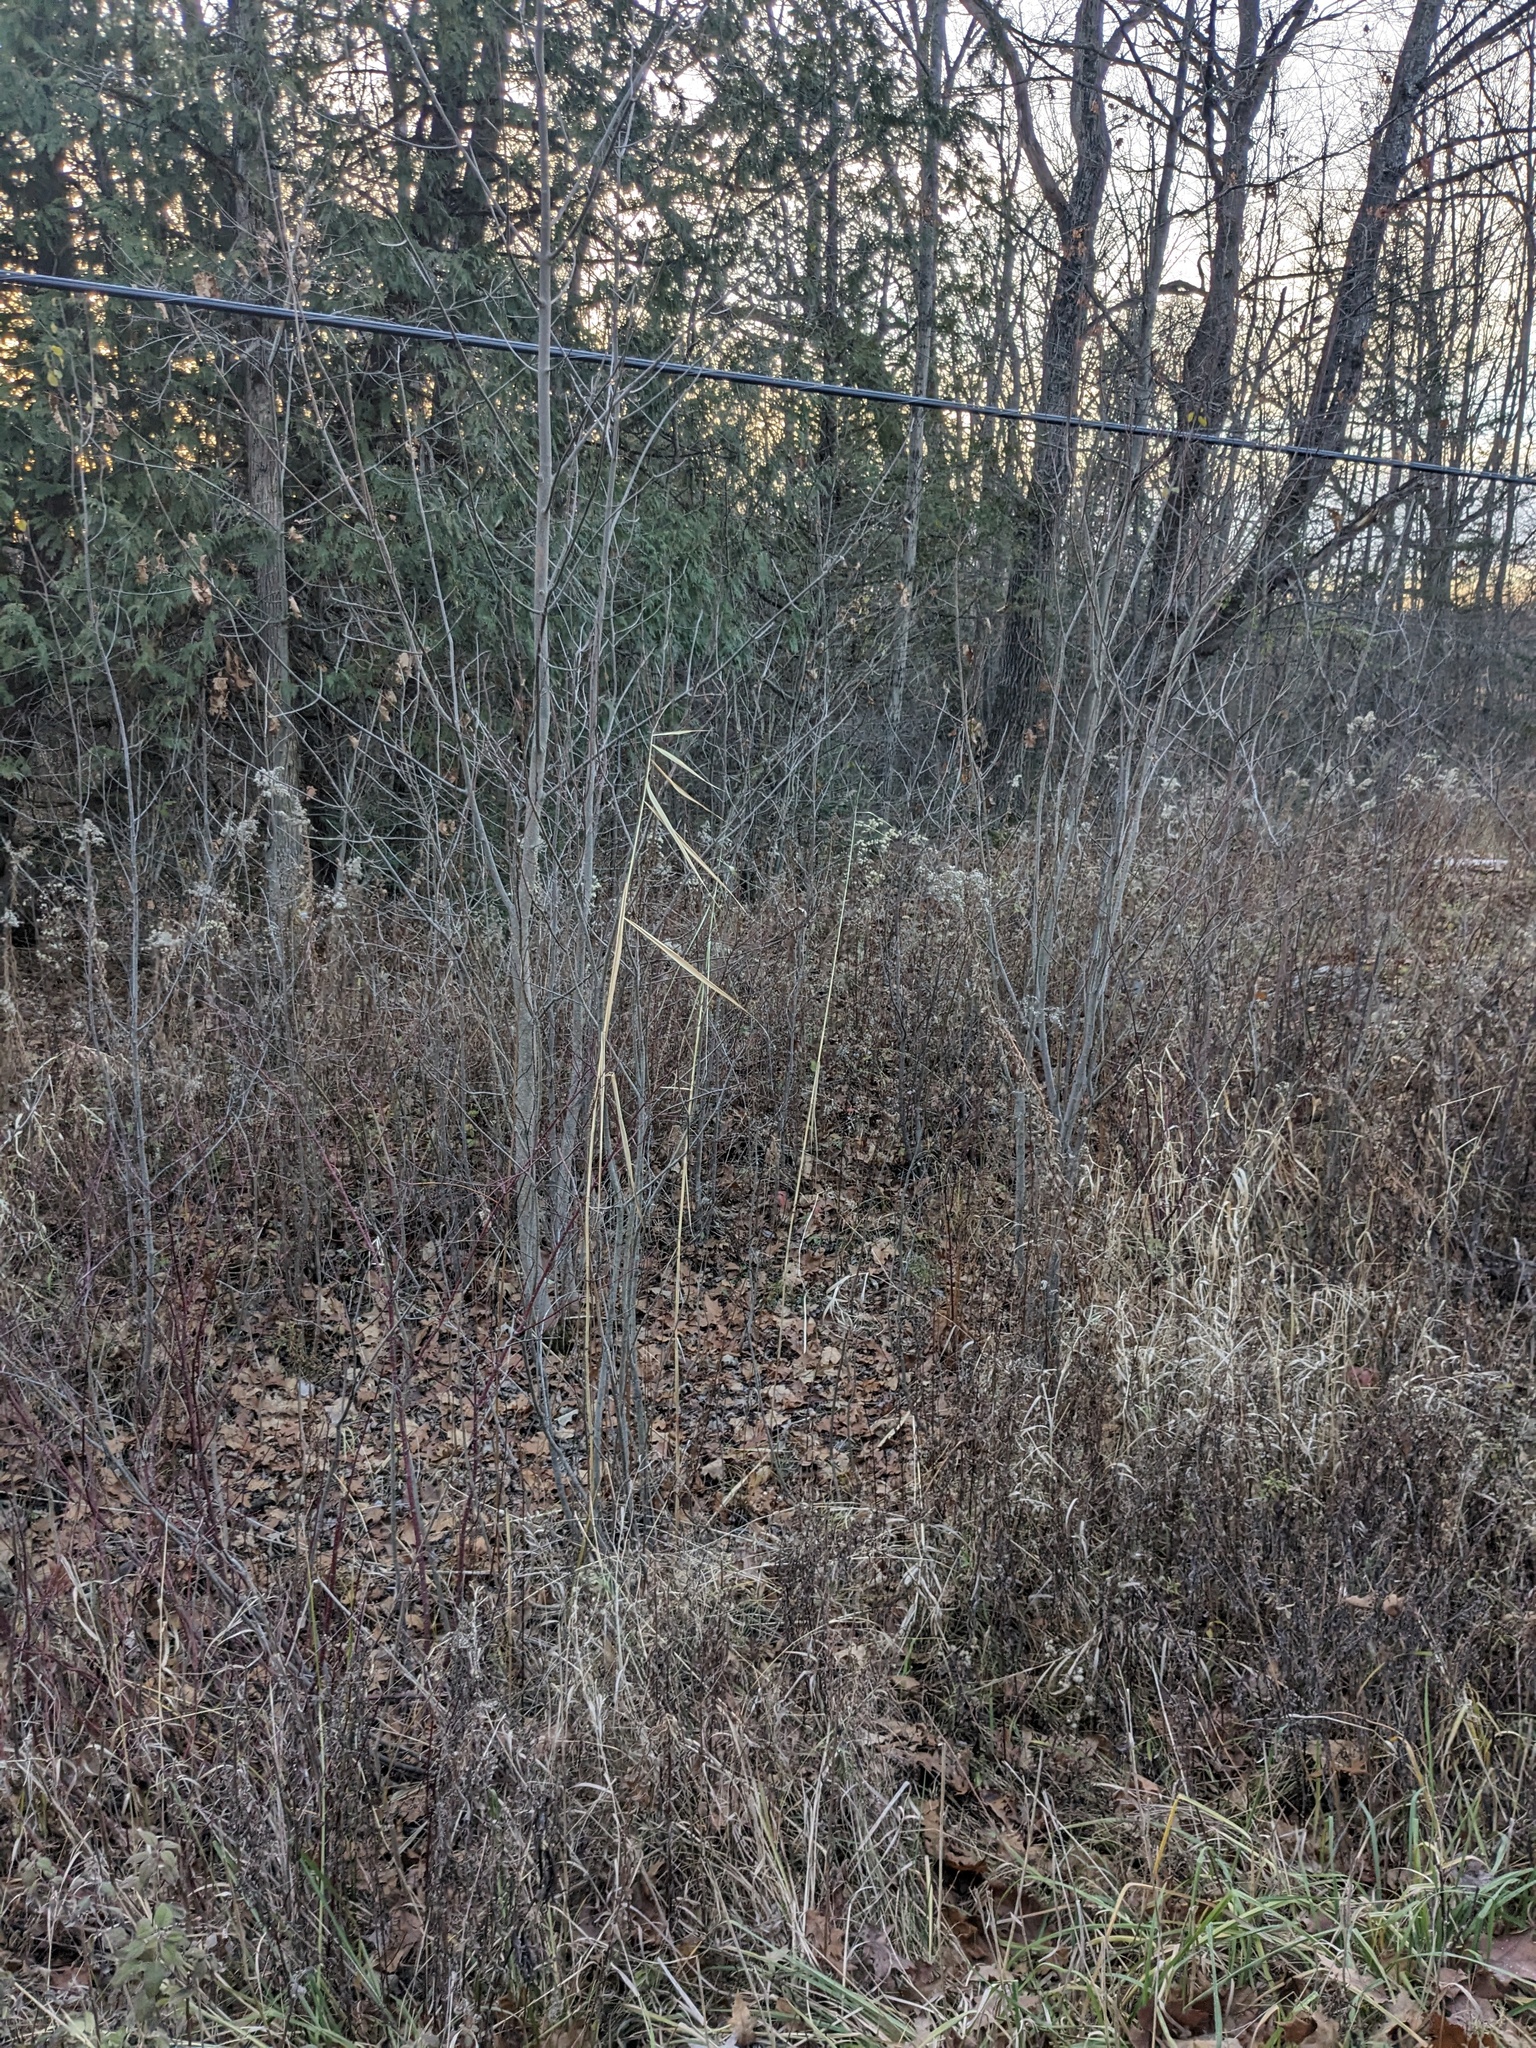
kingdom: Plantae
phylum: Tracheophyta
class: Liliopsida
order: Poales
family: Poaceae
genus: Phragmites
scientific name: Phragmites australis
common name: Common reed
